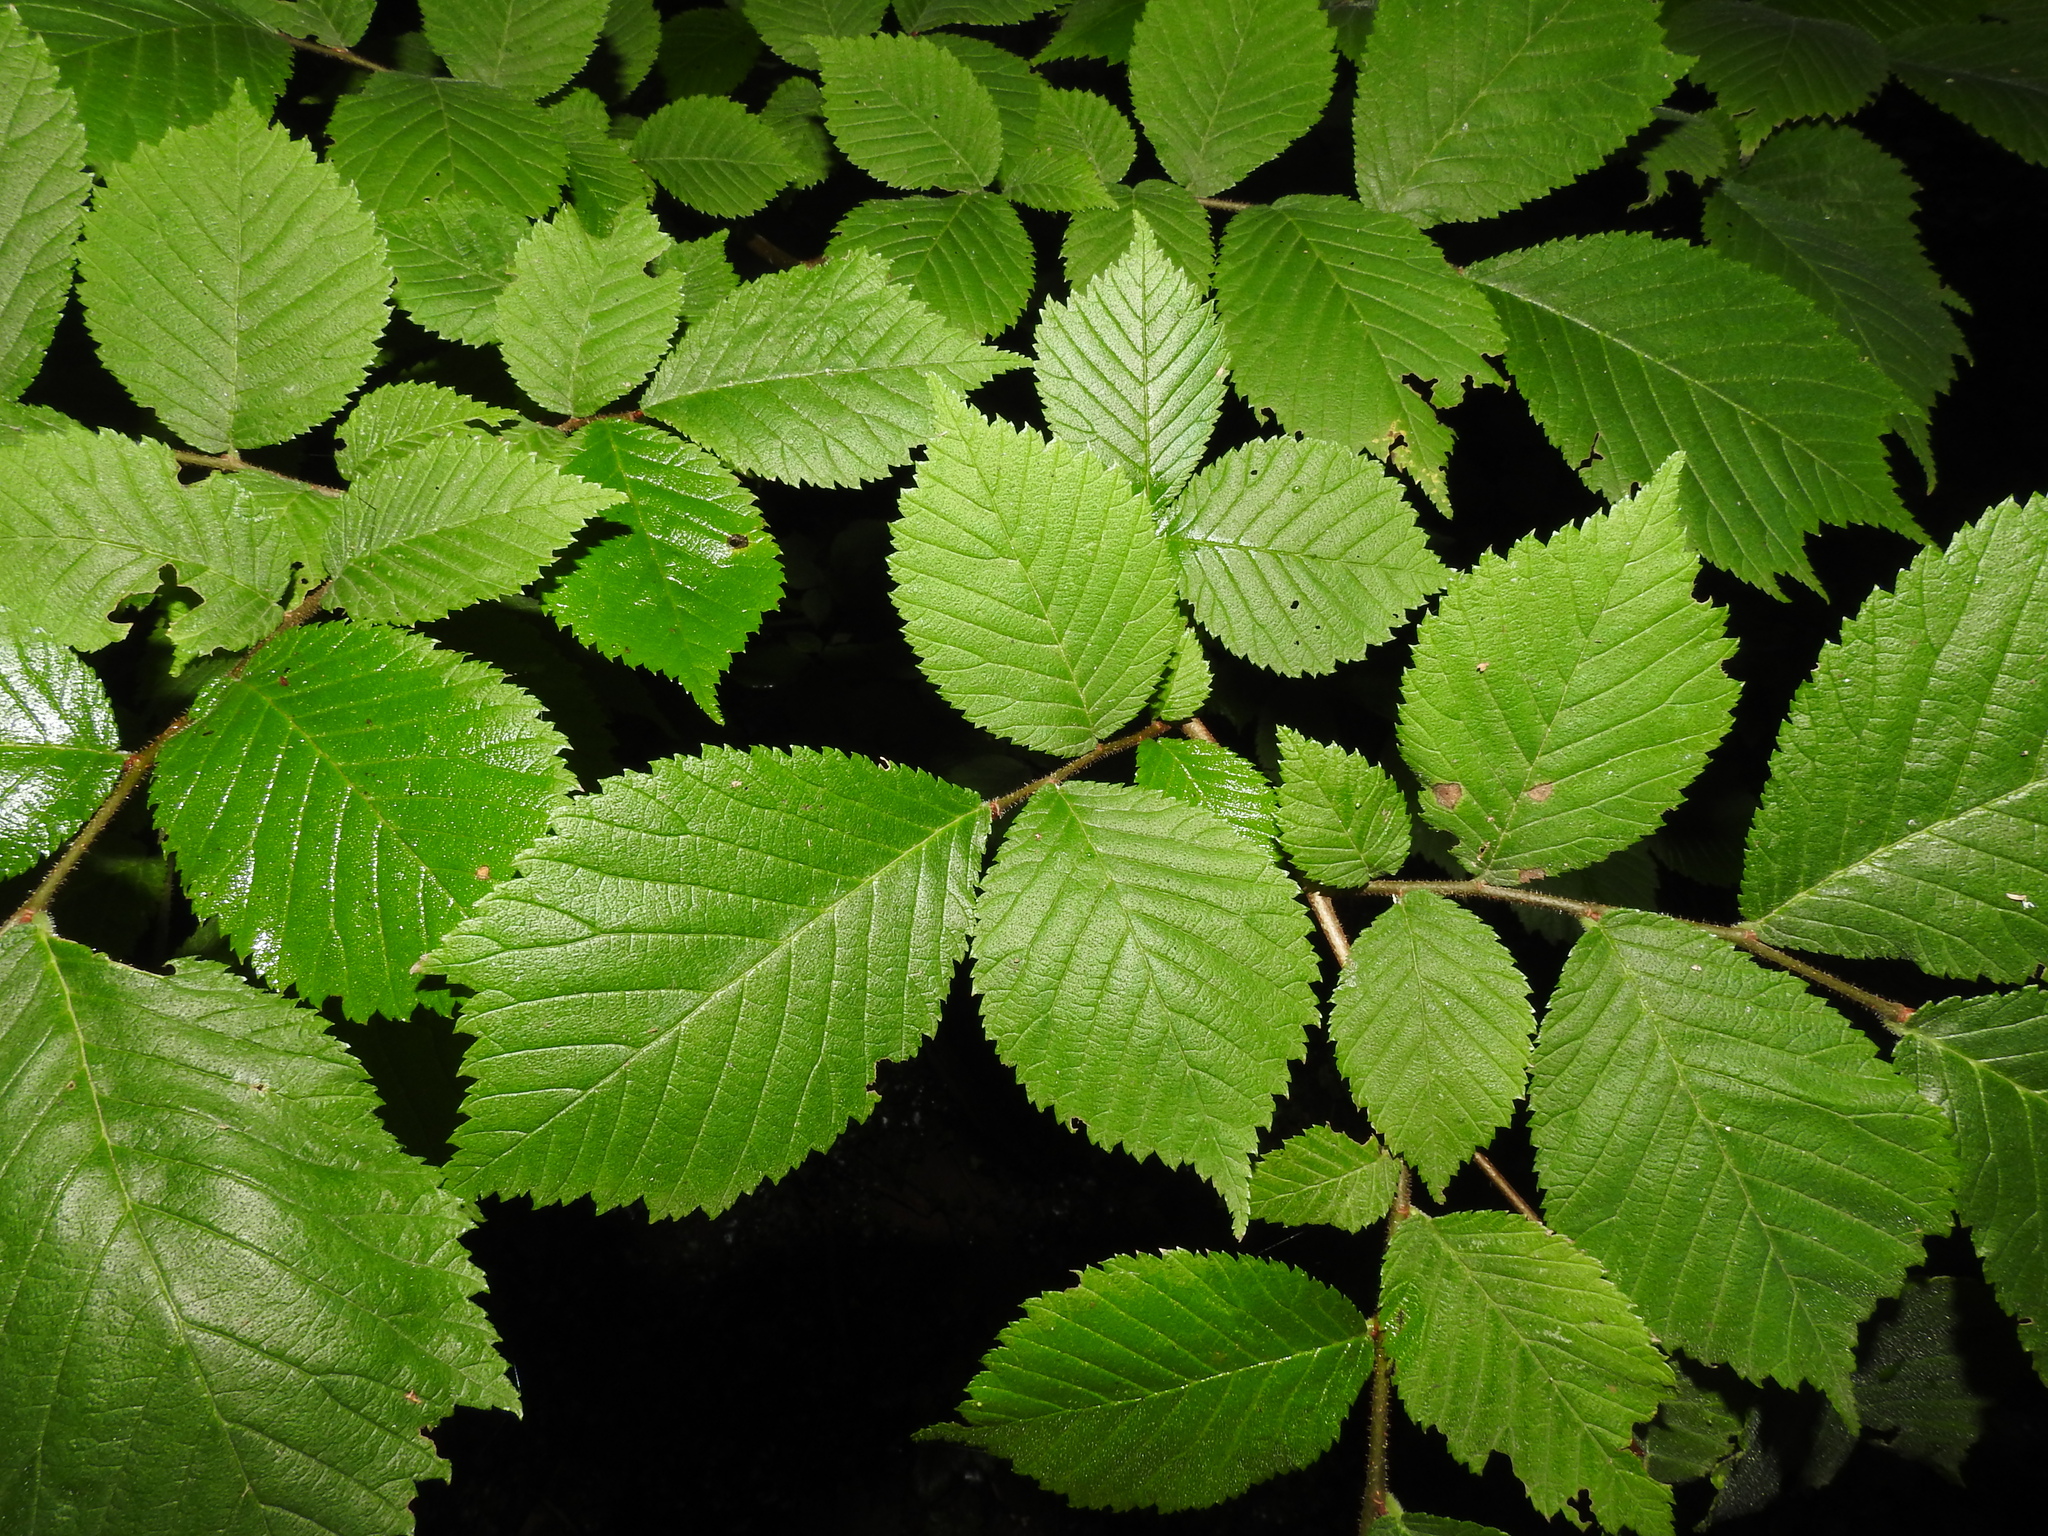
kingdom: Plantae
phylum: Tracheophyta
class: Magnoliopsida
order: Rosales
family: Ulmaceae
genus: Ulmus
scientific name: Ulmus glabra
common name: Wych elm
